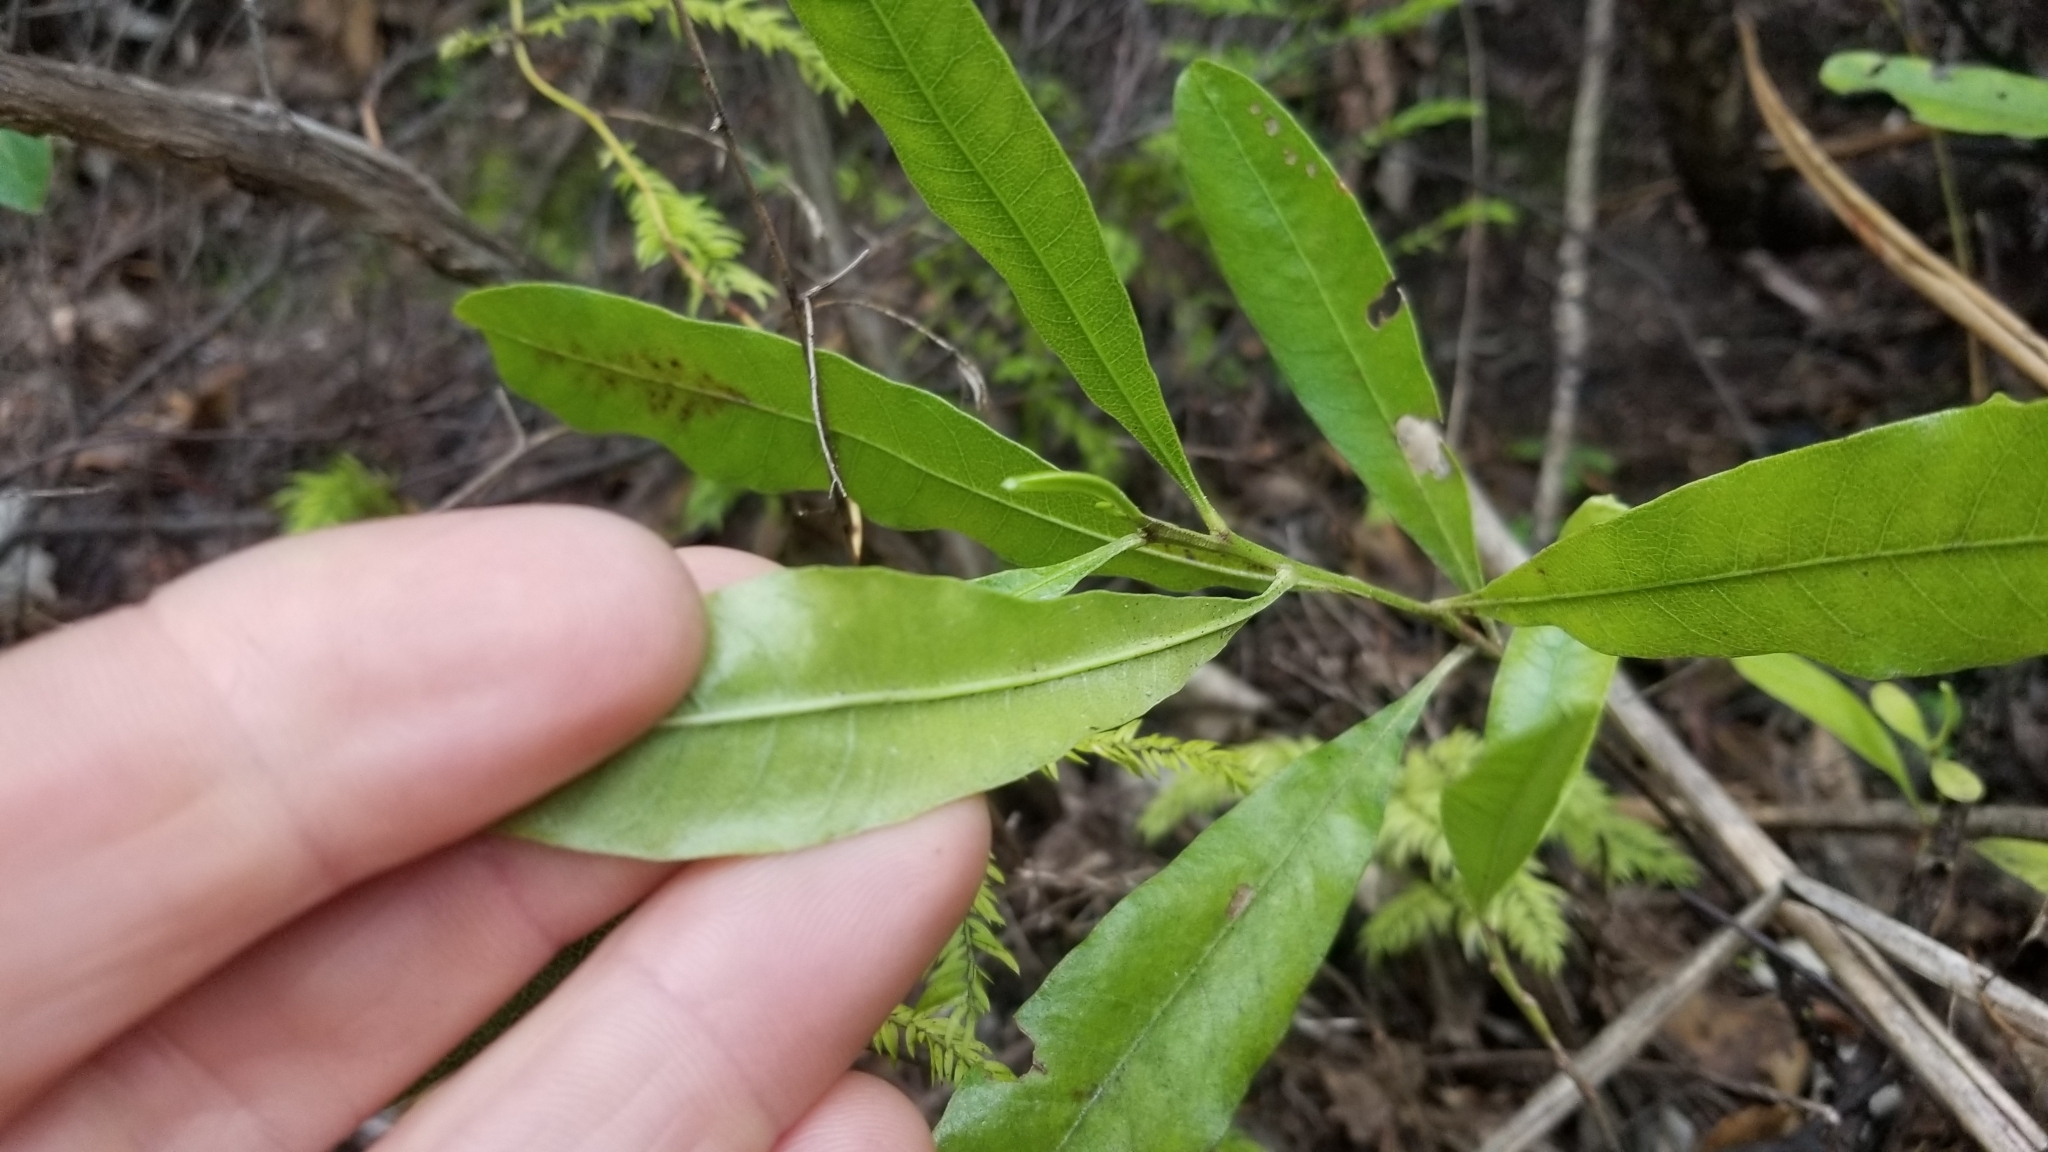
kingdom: Plantae
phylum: Tracheophyta
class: Magnoliopsida
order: Sapindales
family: Sapindaceae
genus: Dodonaea
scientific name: Dodonaea viscosa
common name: Hopbush
